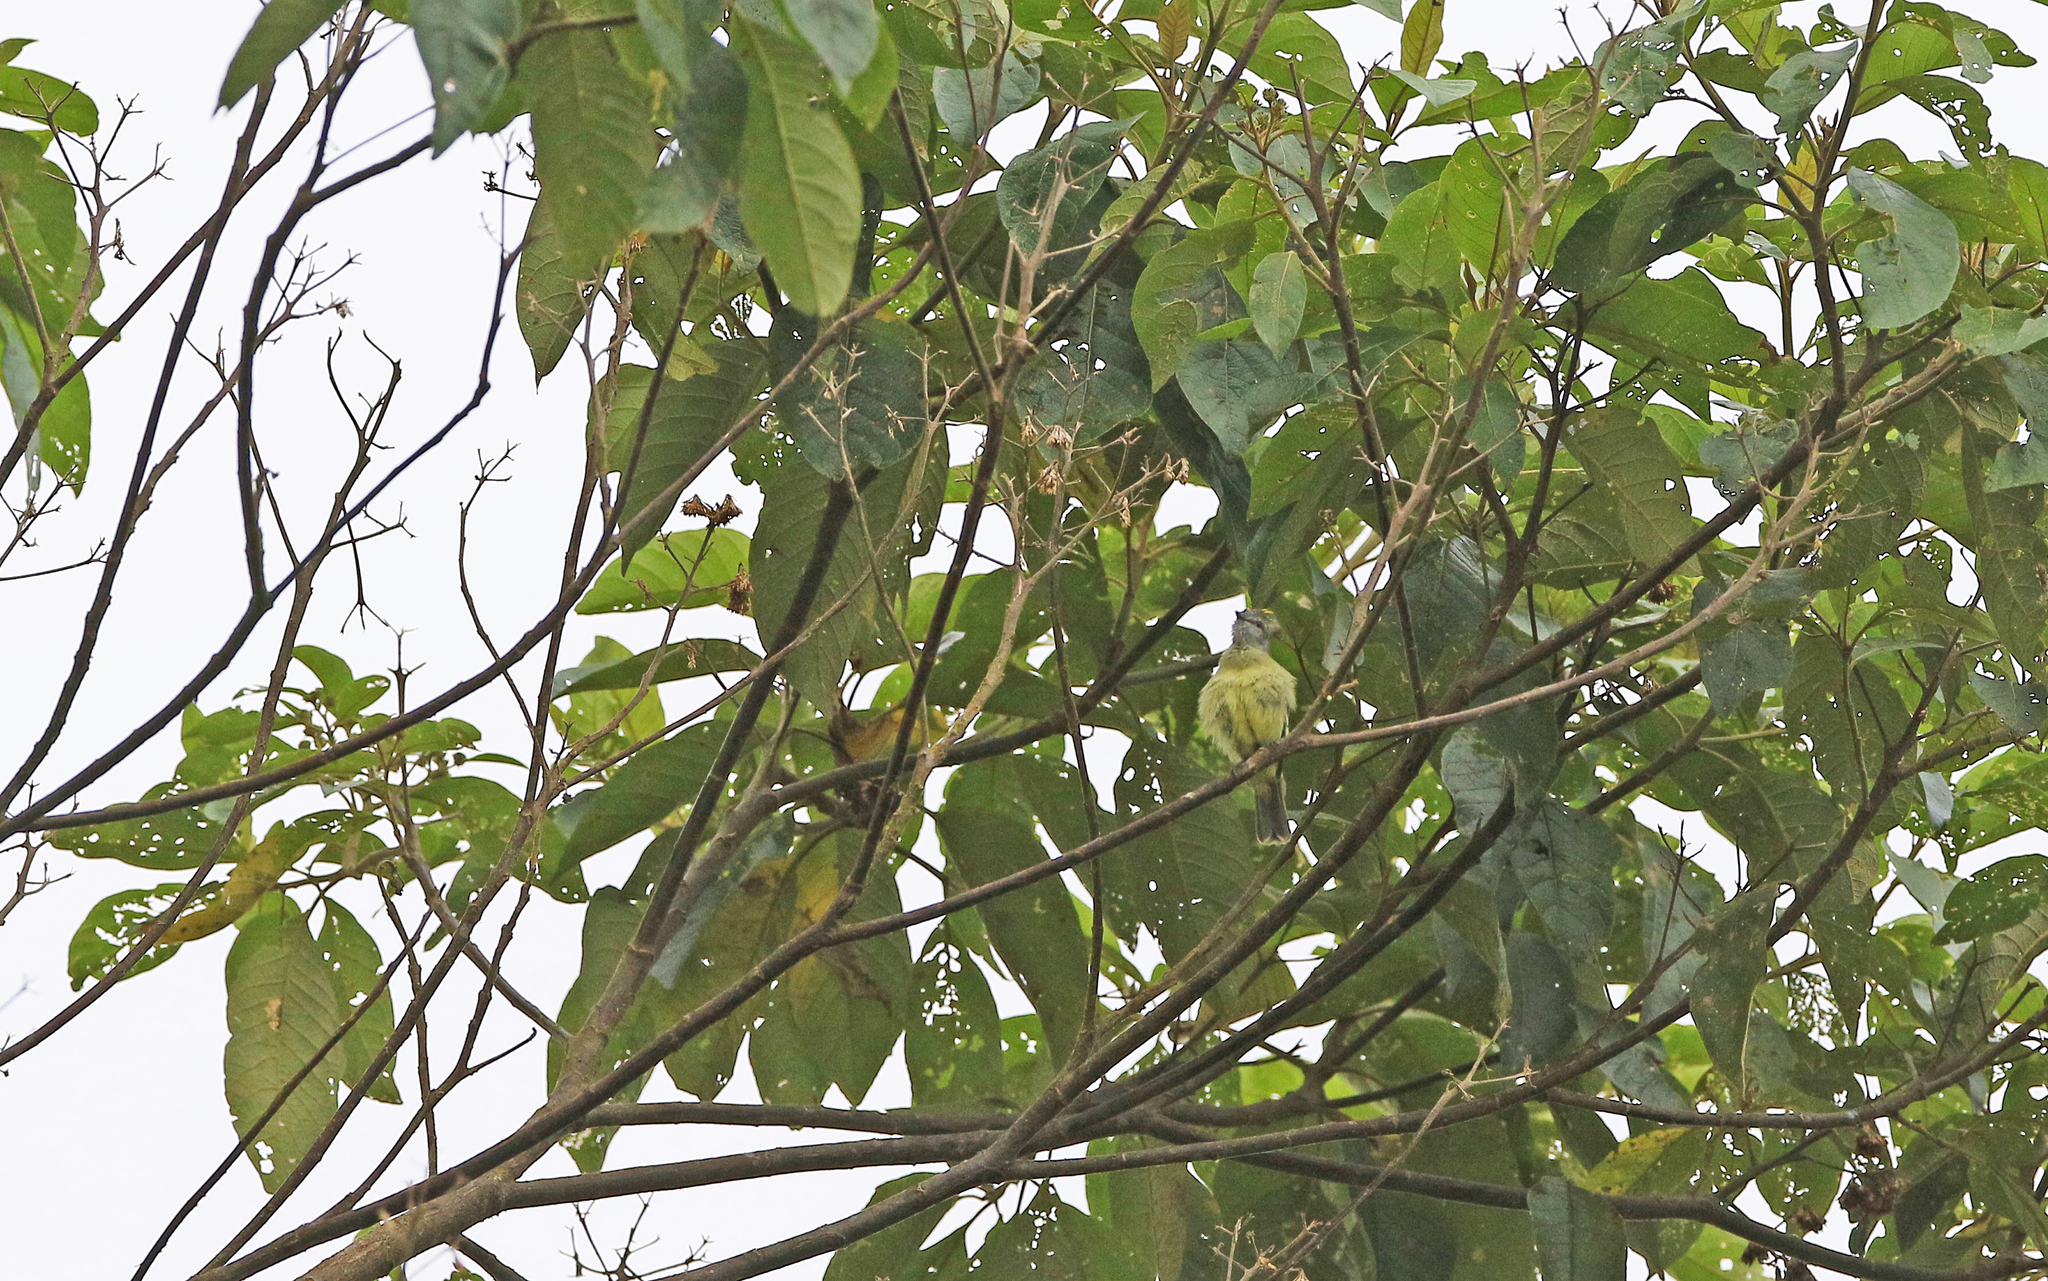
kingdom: Animalia
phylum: Chordata
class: Aves
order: Passeriformes
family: Tyrannidae
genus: Tyrannulus
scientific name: Tyrannulus elatus
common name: Yellow-crowned tyrannulet
